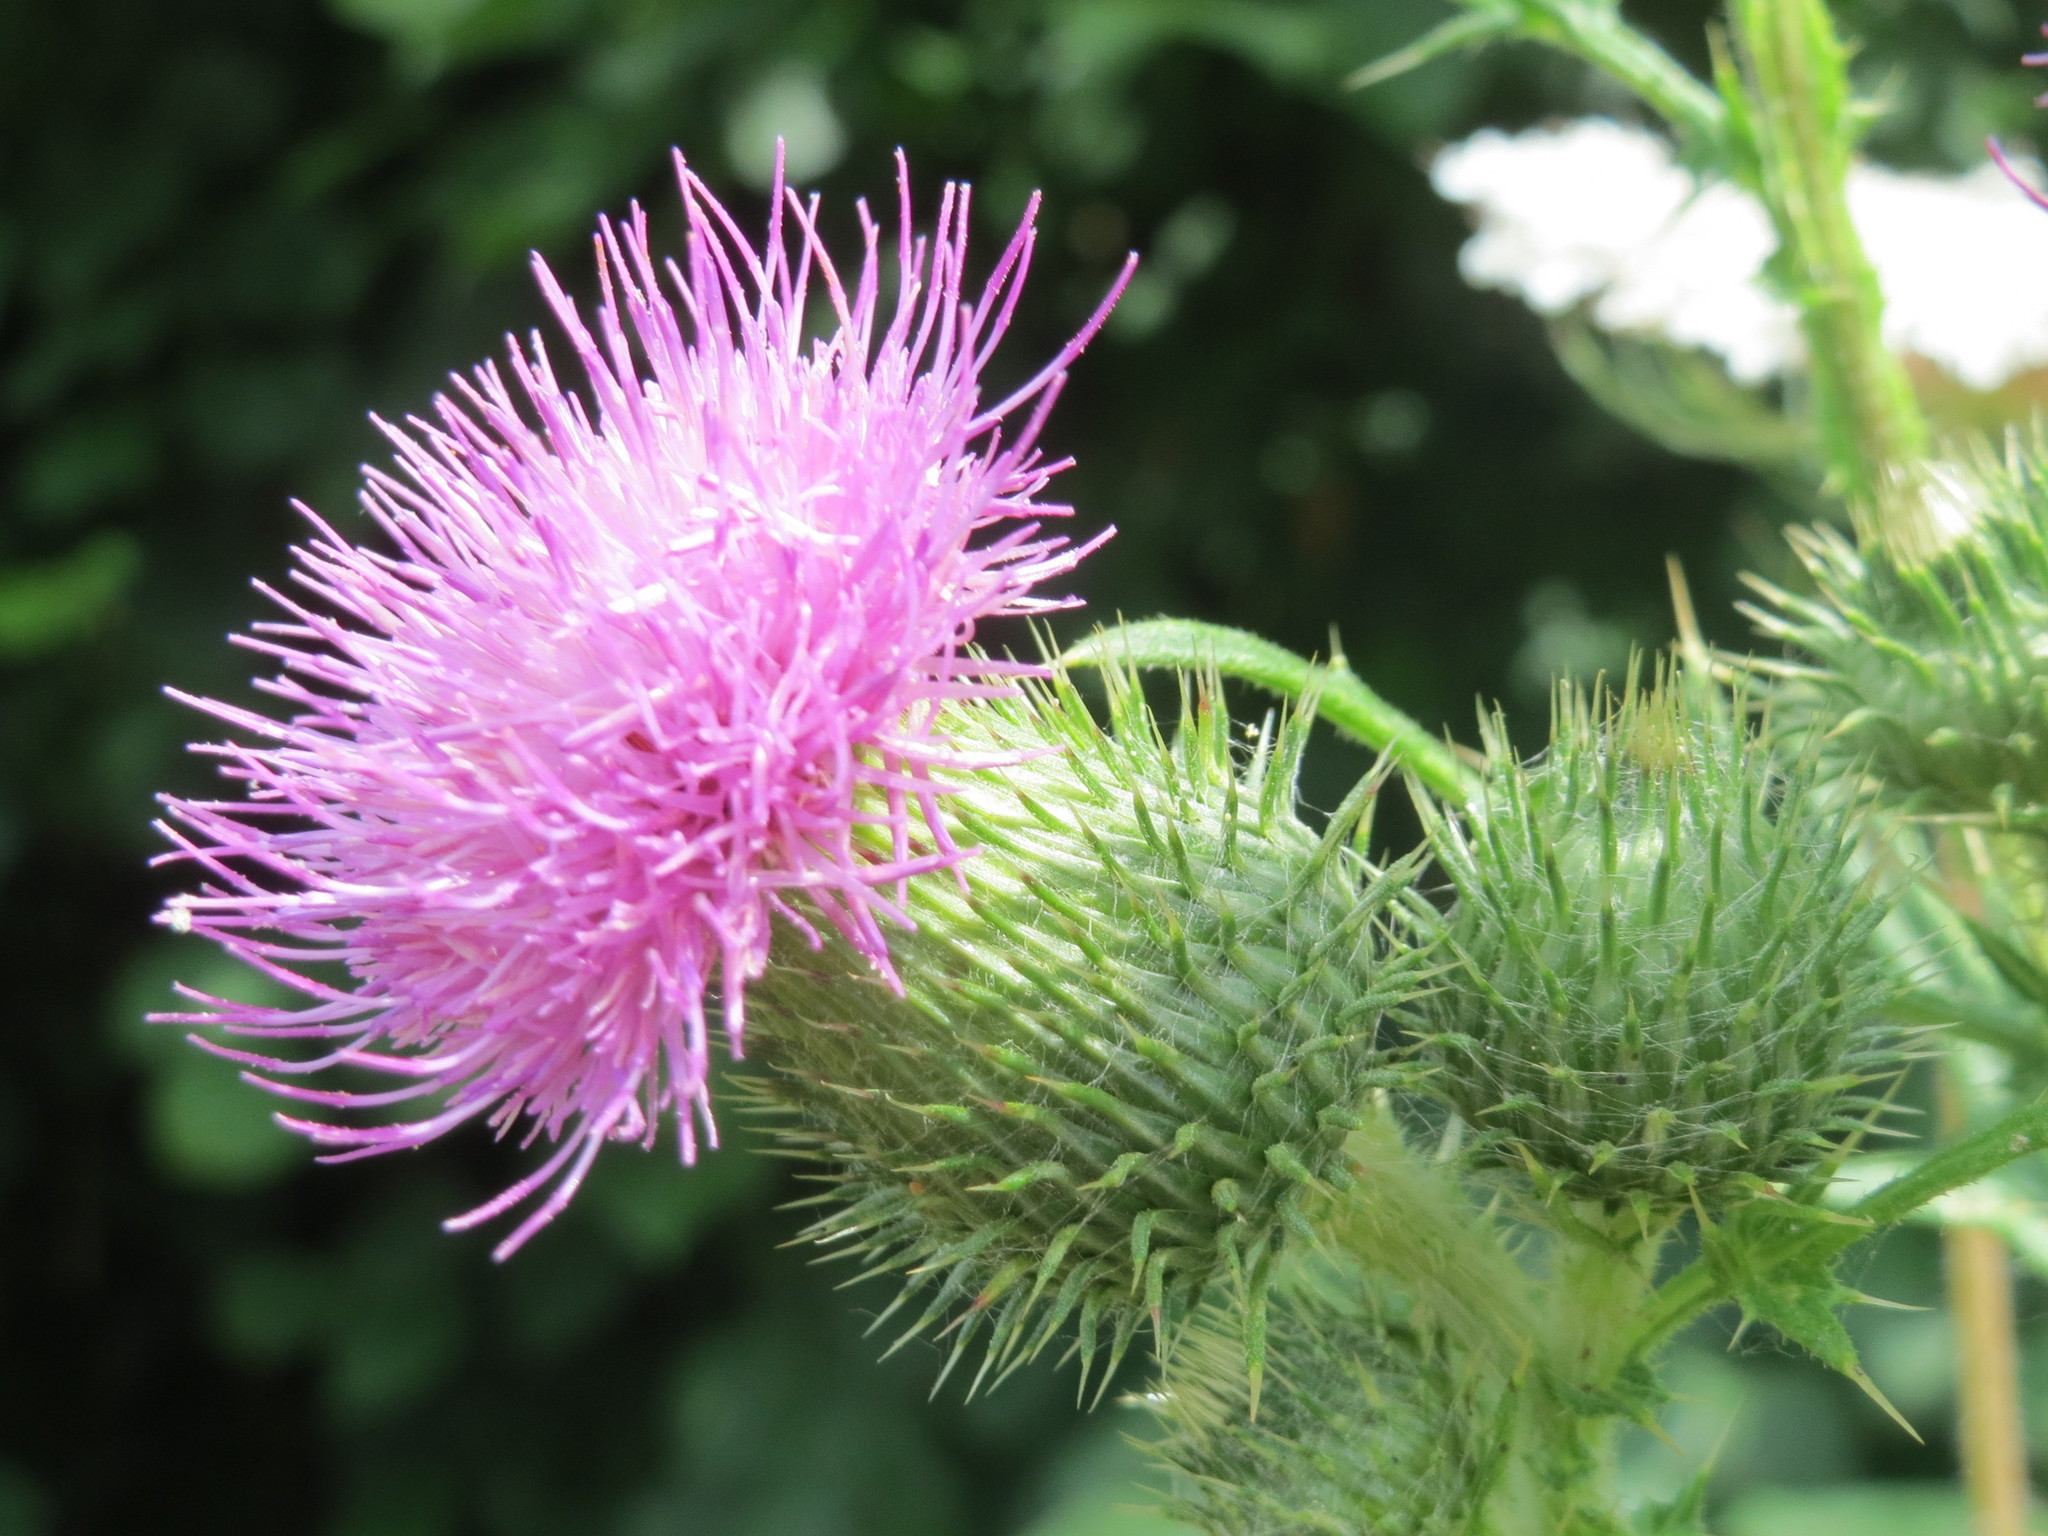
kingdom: Plantae
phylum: Tracheophyta
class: Magnoliopsida
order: Asterales
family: Asteraceae
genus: Cirsium
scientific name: Cirsium vulgare
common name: Bull thistle
